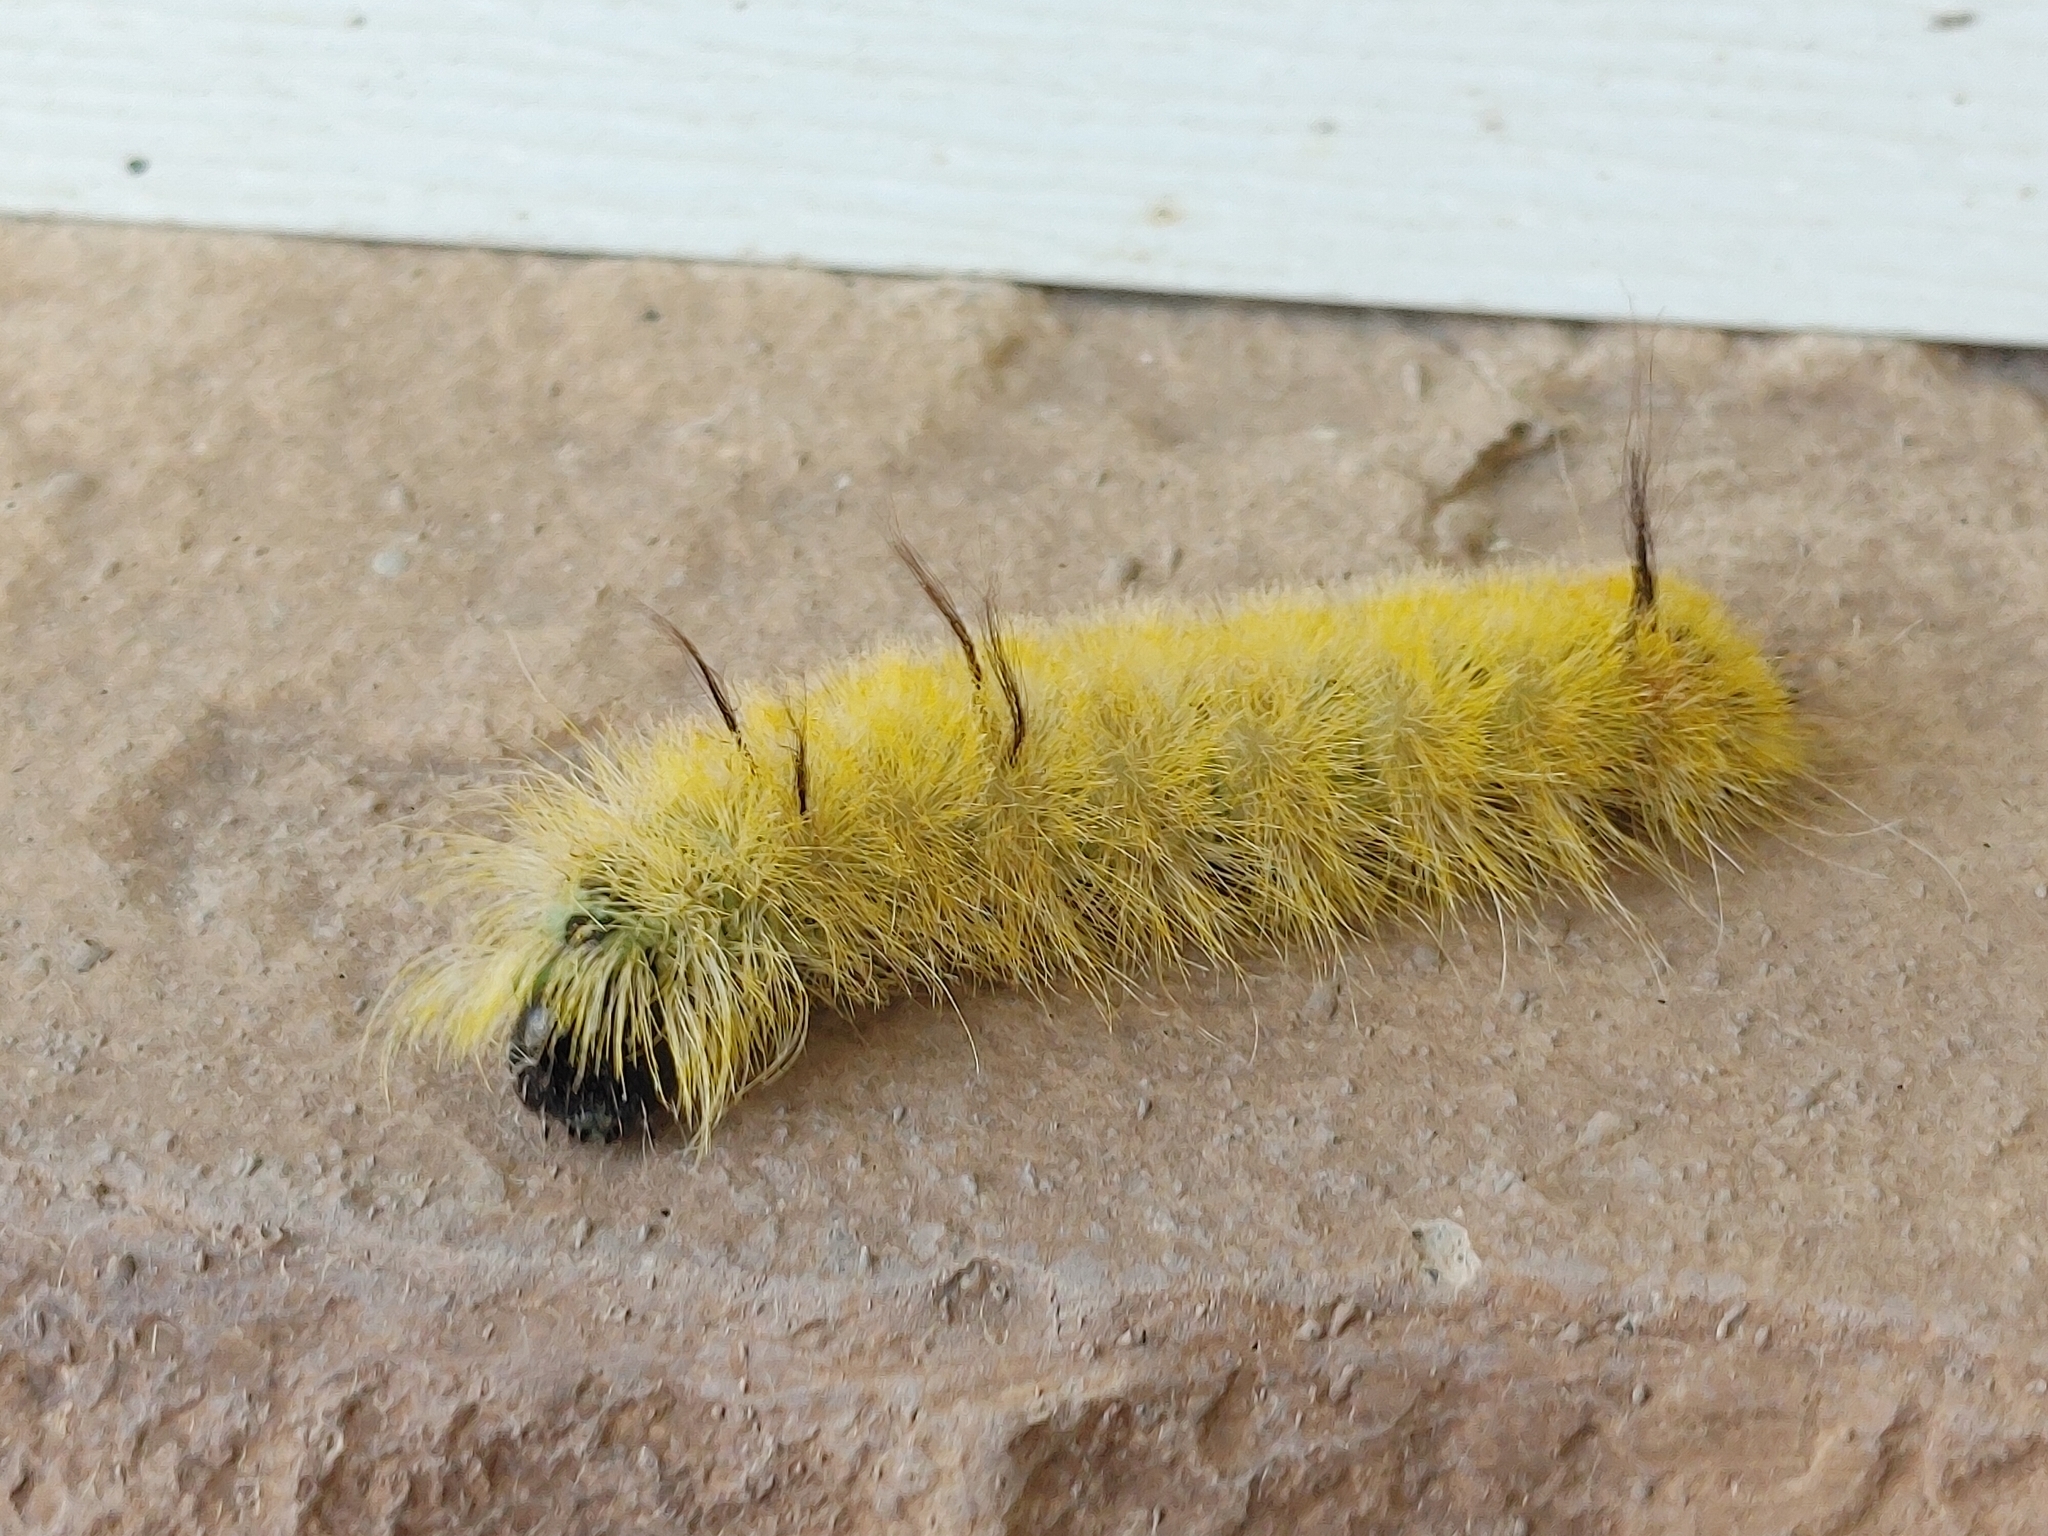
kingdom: Animalia
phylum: Arthropoda
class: Insecta
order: Lepidoptera
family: Noctuidae
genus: Acronicta
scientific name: Acronicta americana
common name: American dagger
